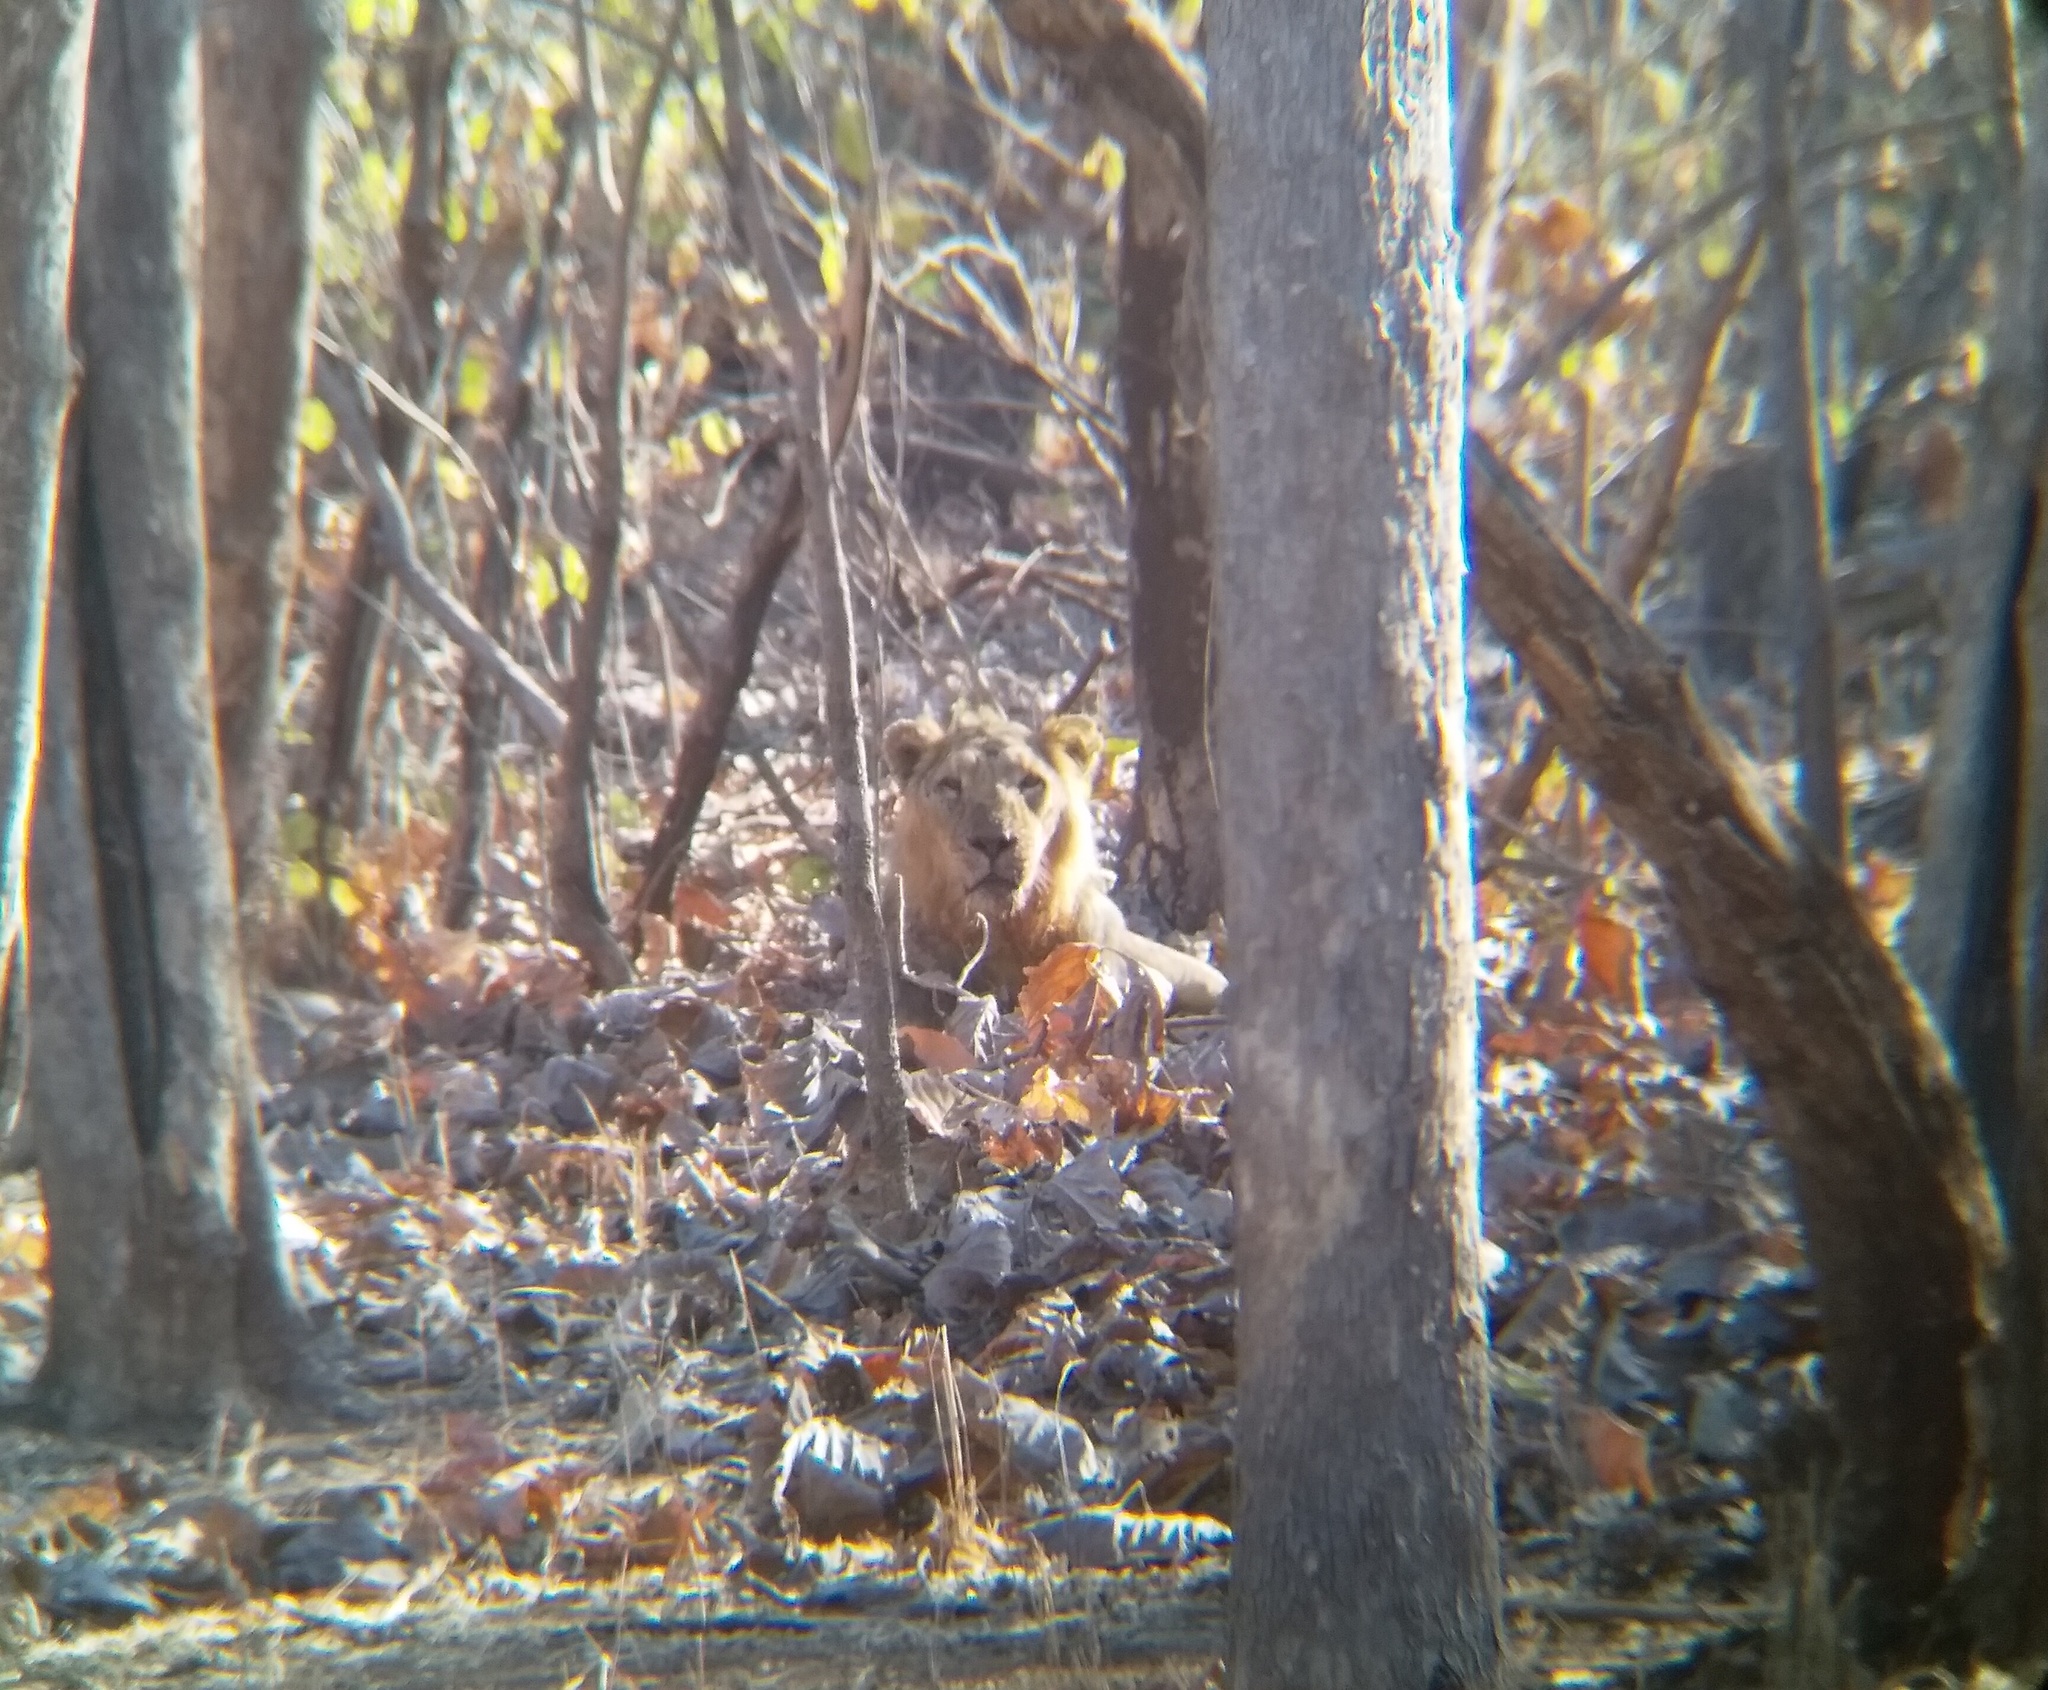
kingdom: Animalia
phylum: Chordata
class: Mammalia
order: Carnivora
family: Felidae
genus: Panthera
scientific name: Panthera leo
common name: Lion
